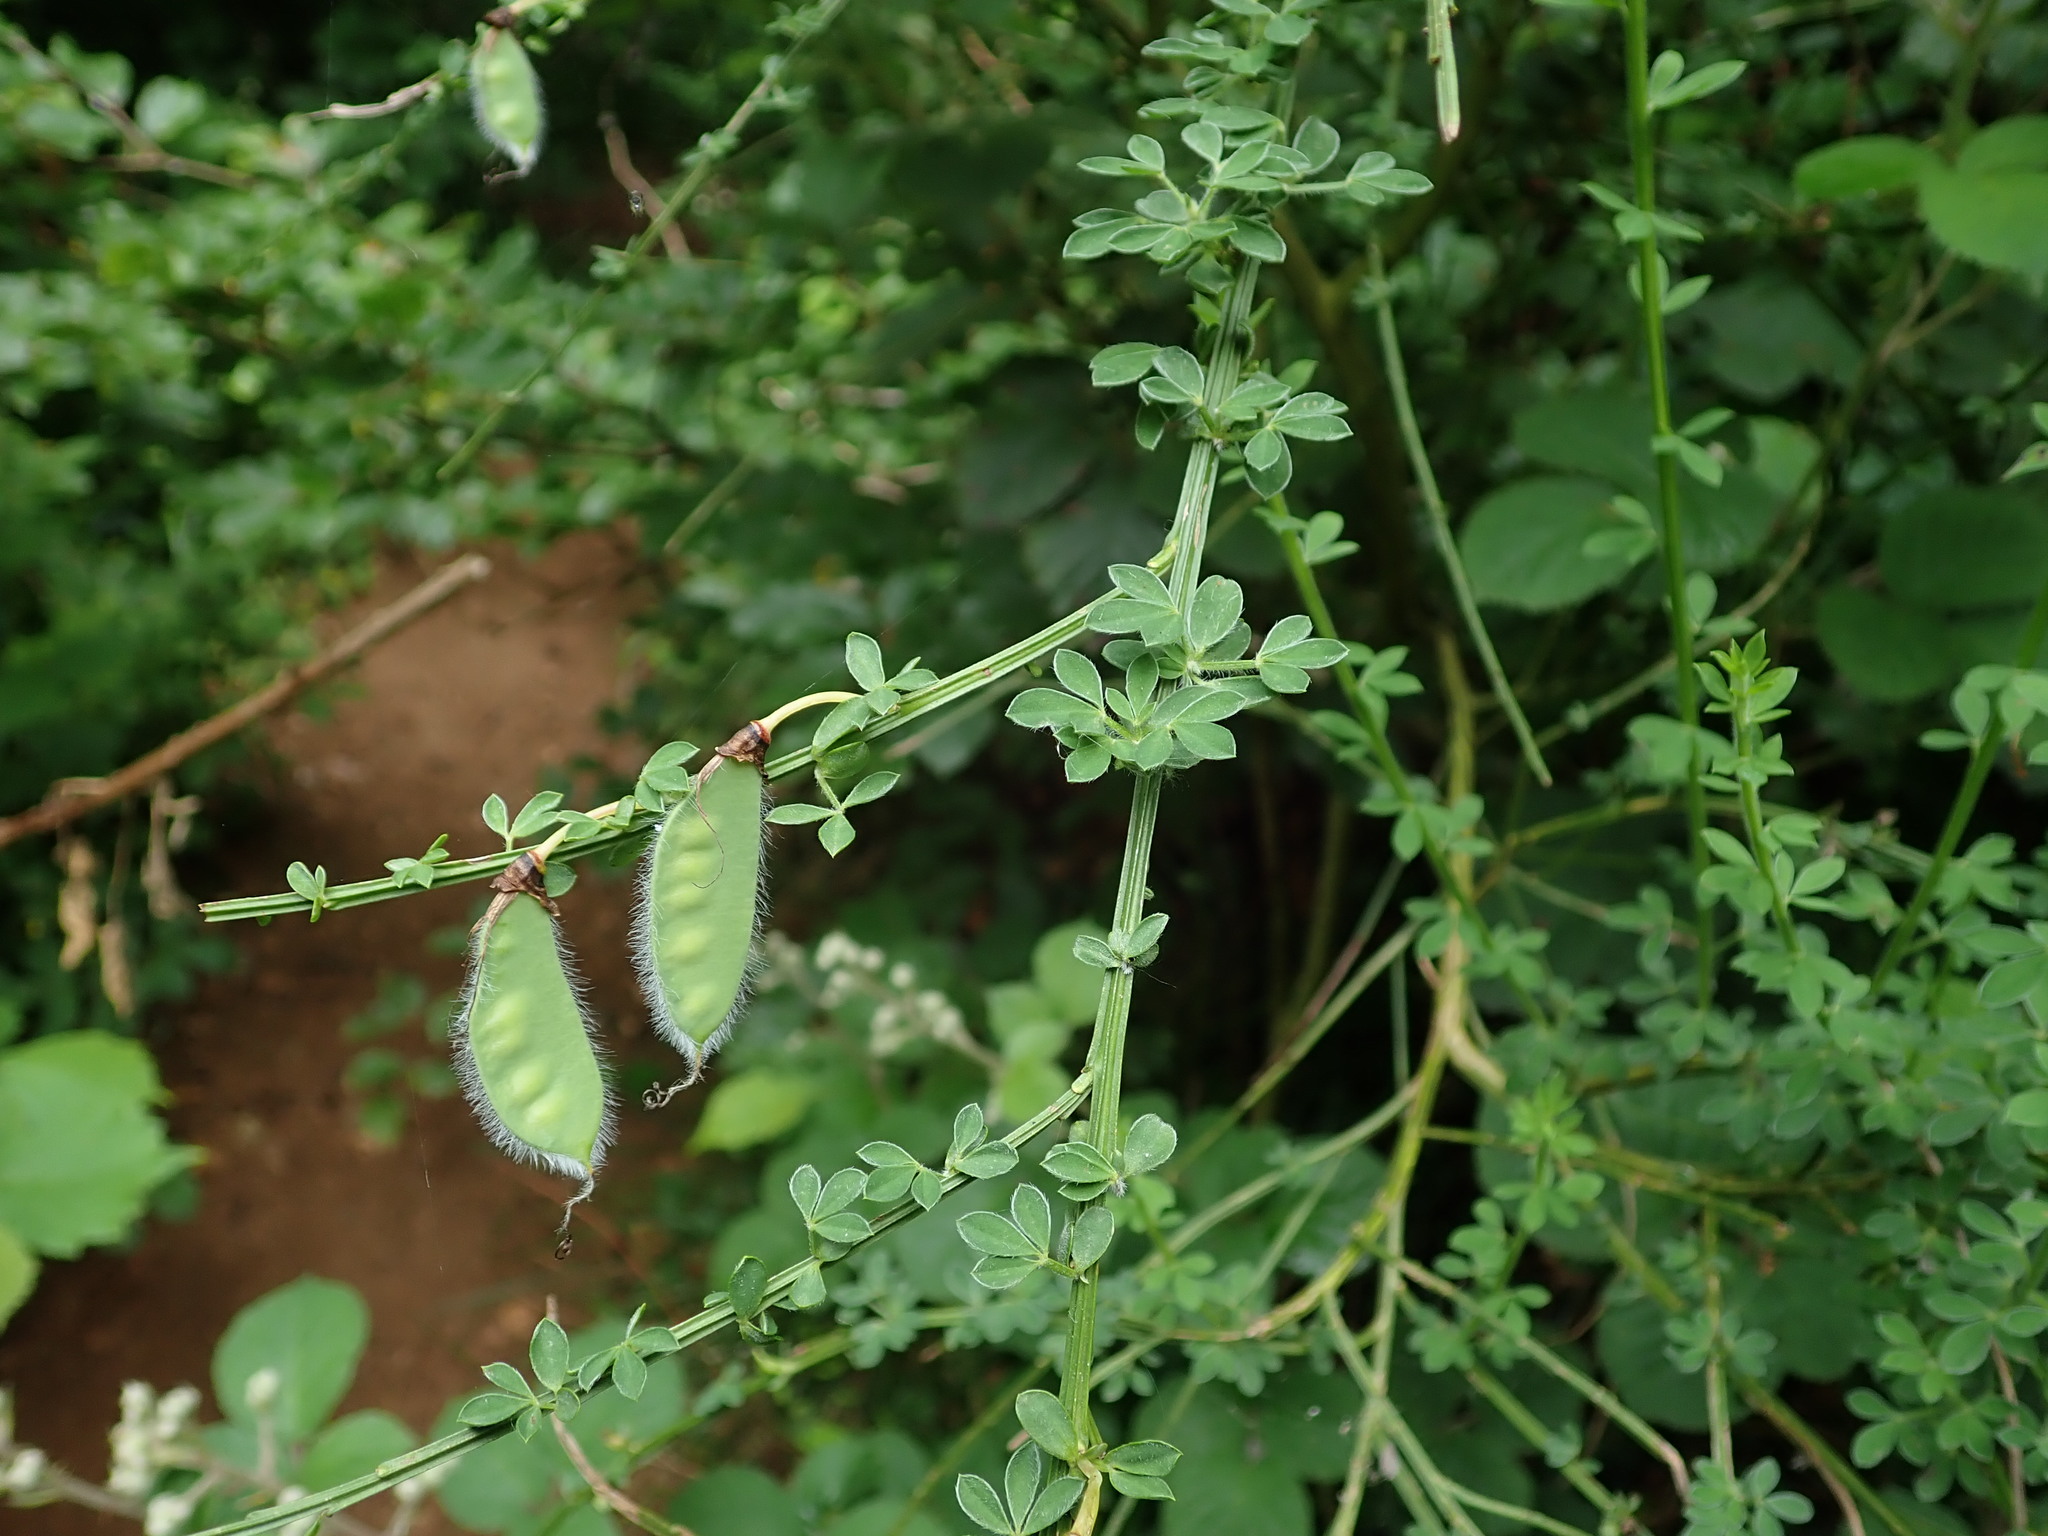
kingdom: Plantae
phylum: Tracheophyta
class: Magnoliopsida
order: Fabales
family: Fabaceae
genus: Cytisus
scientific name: Cytisus scoparius
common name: Scotch broom
